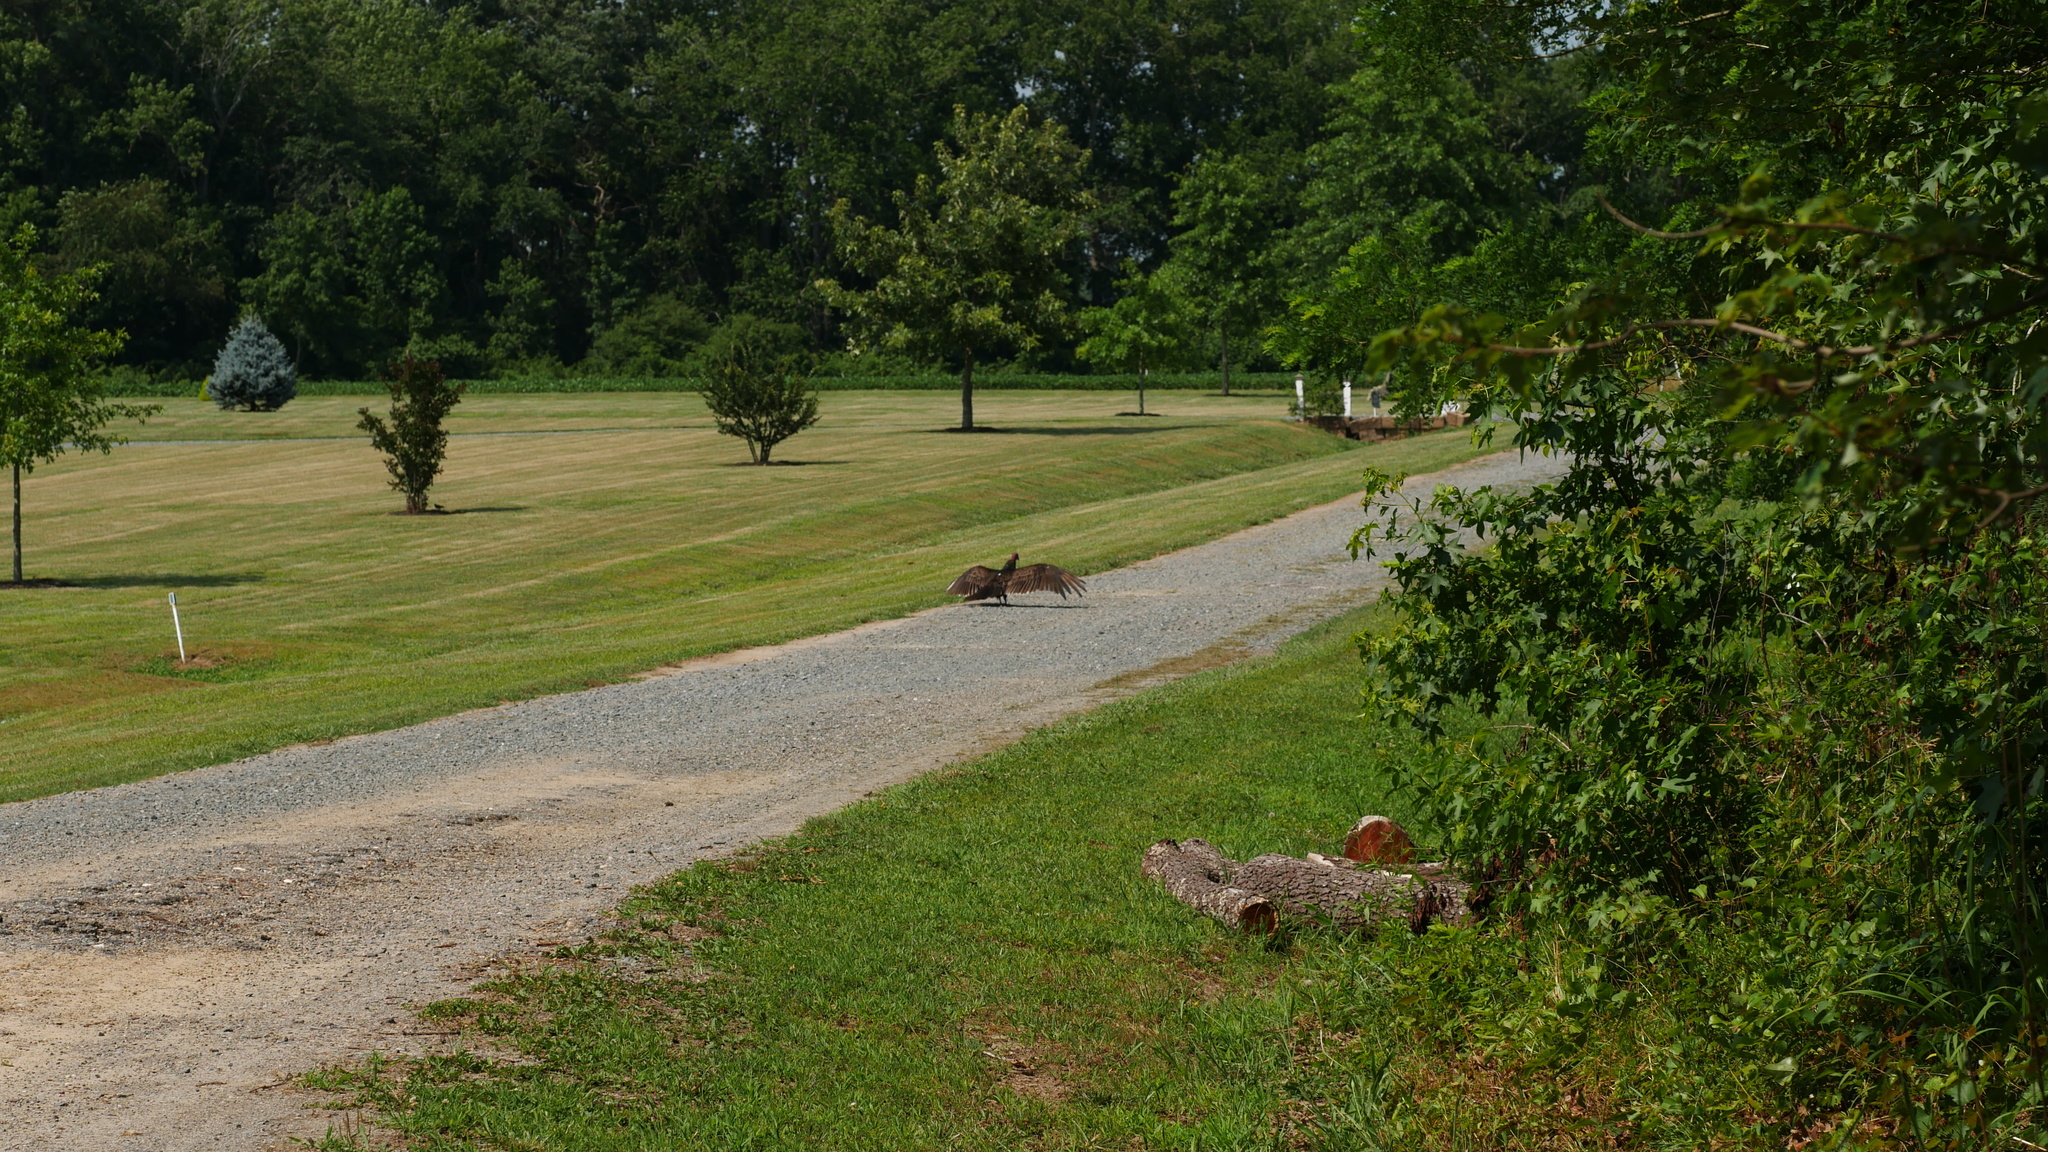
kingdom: Animalia
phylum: Chordata
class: Aves
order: Accipitriformes
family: Cathartidae
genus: Cathartes
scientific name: Cathartes aura
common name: Turkey vulture
